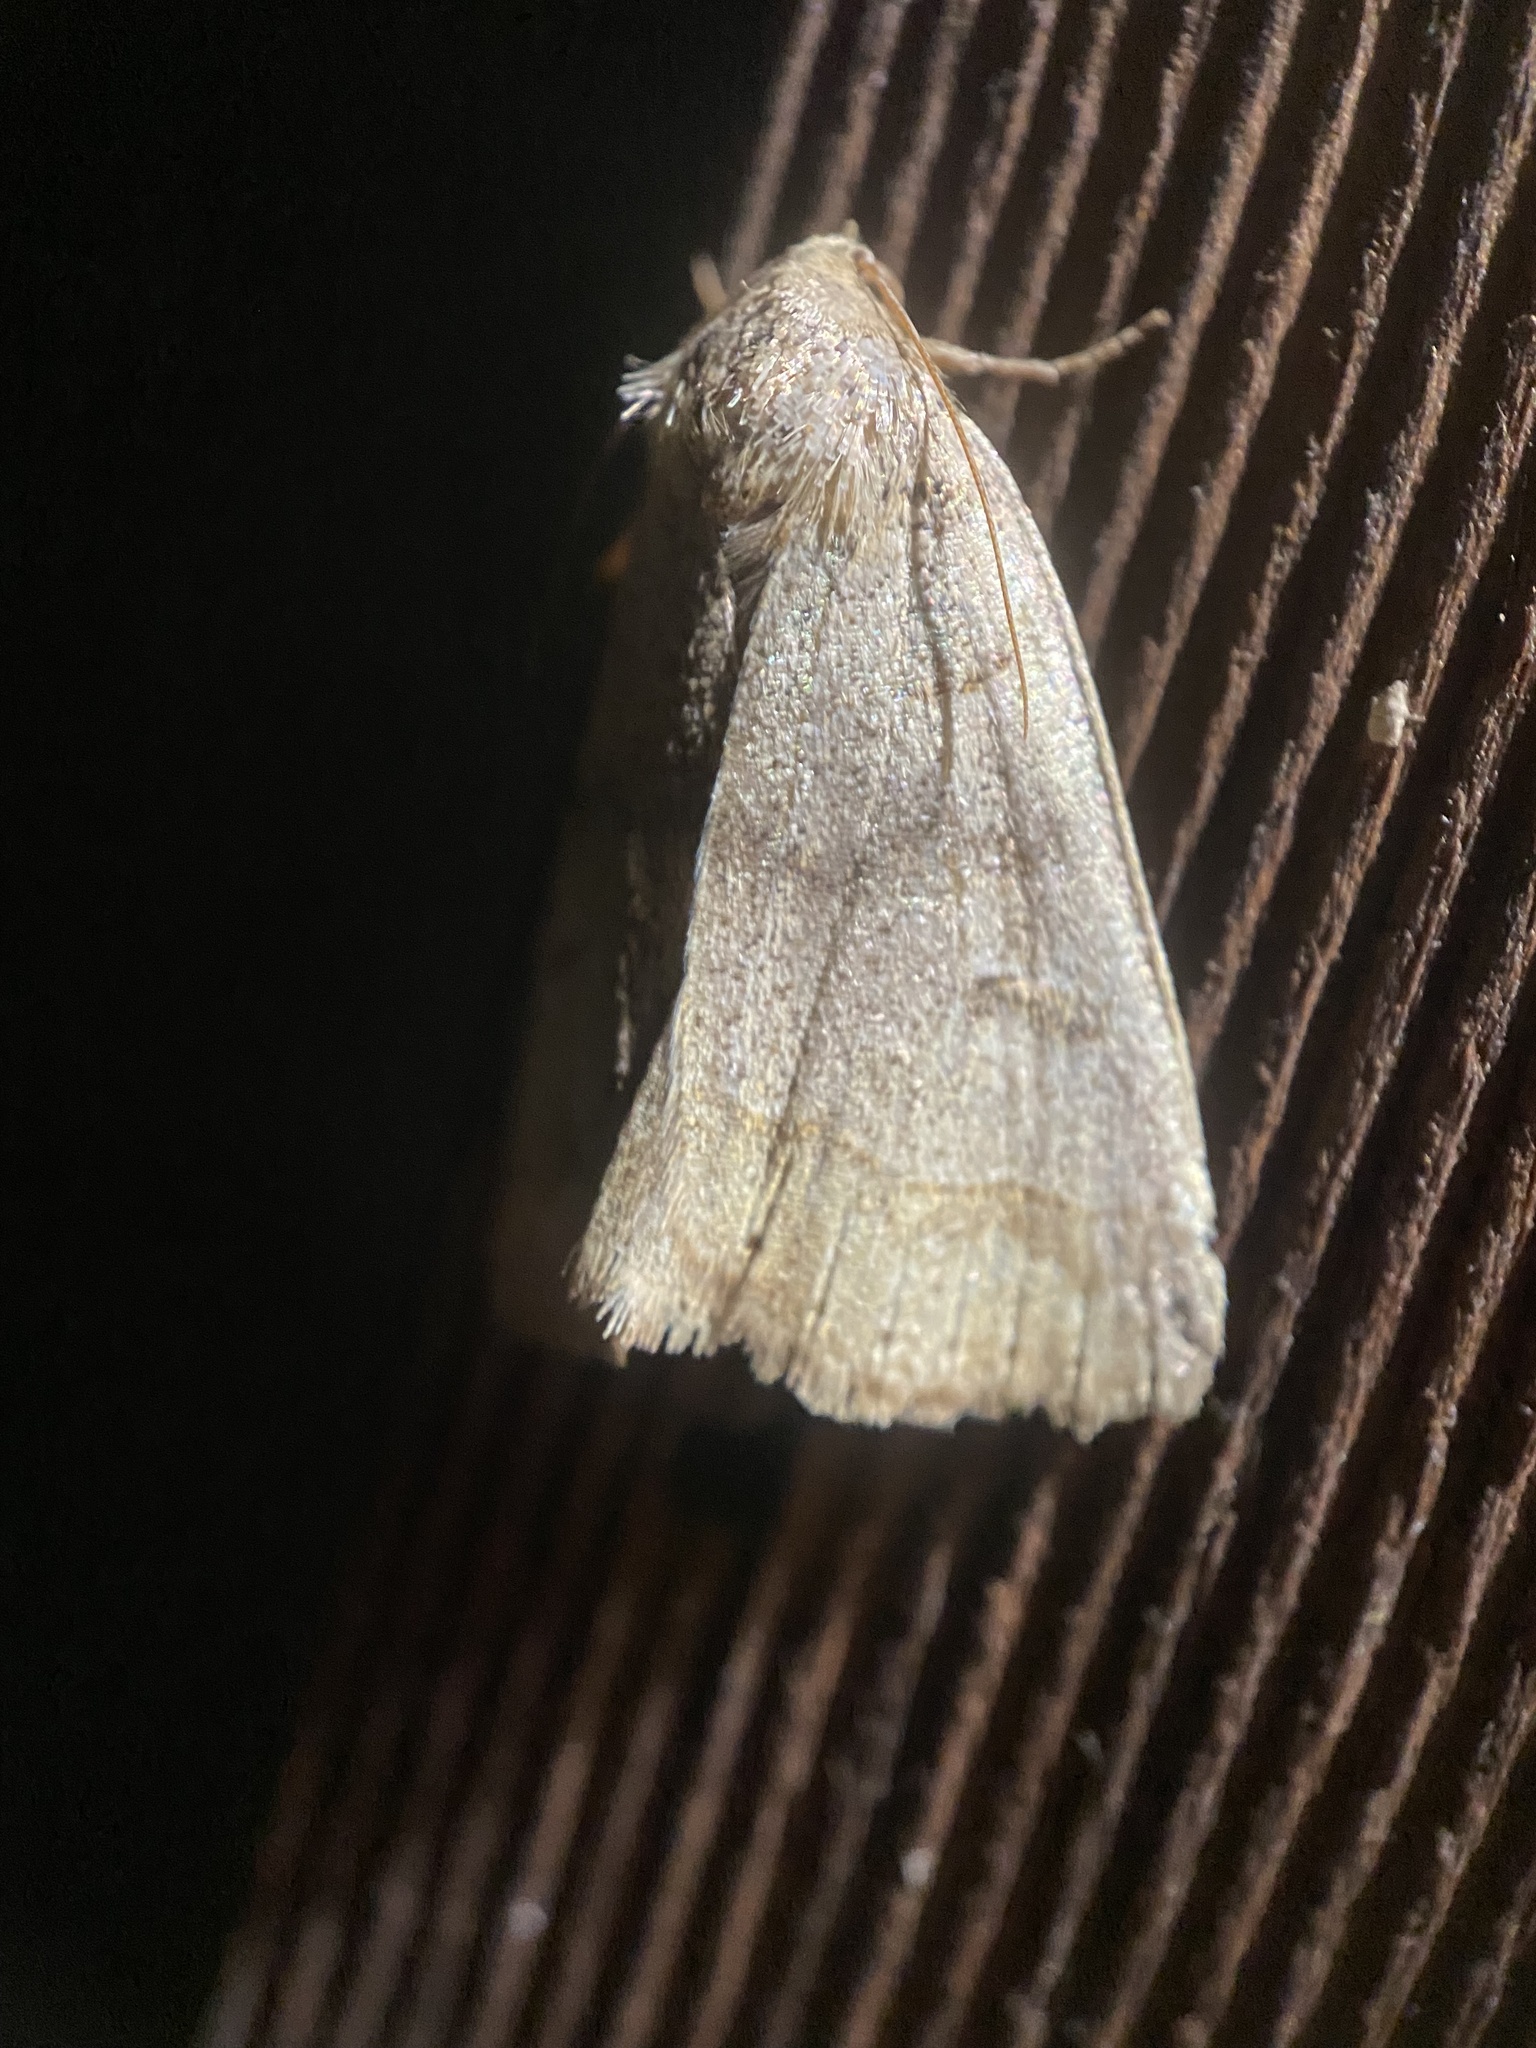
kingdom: Animalia
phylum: Arthropoda
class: Insecta
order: Lepidoptera
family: Erebidae
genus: Phoberia
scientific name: Phoberia atomaris
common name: Common oak moth
